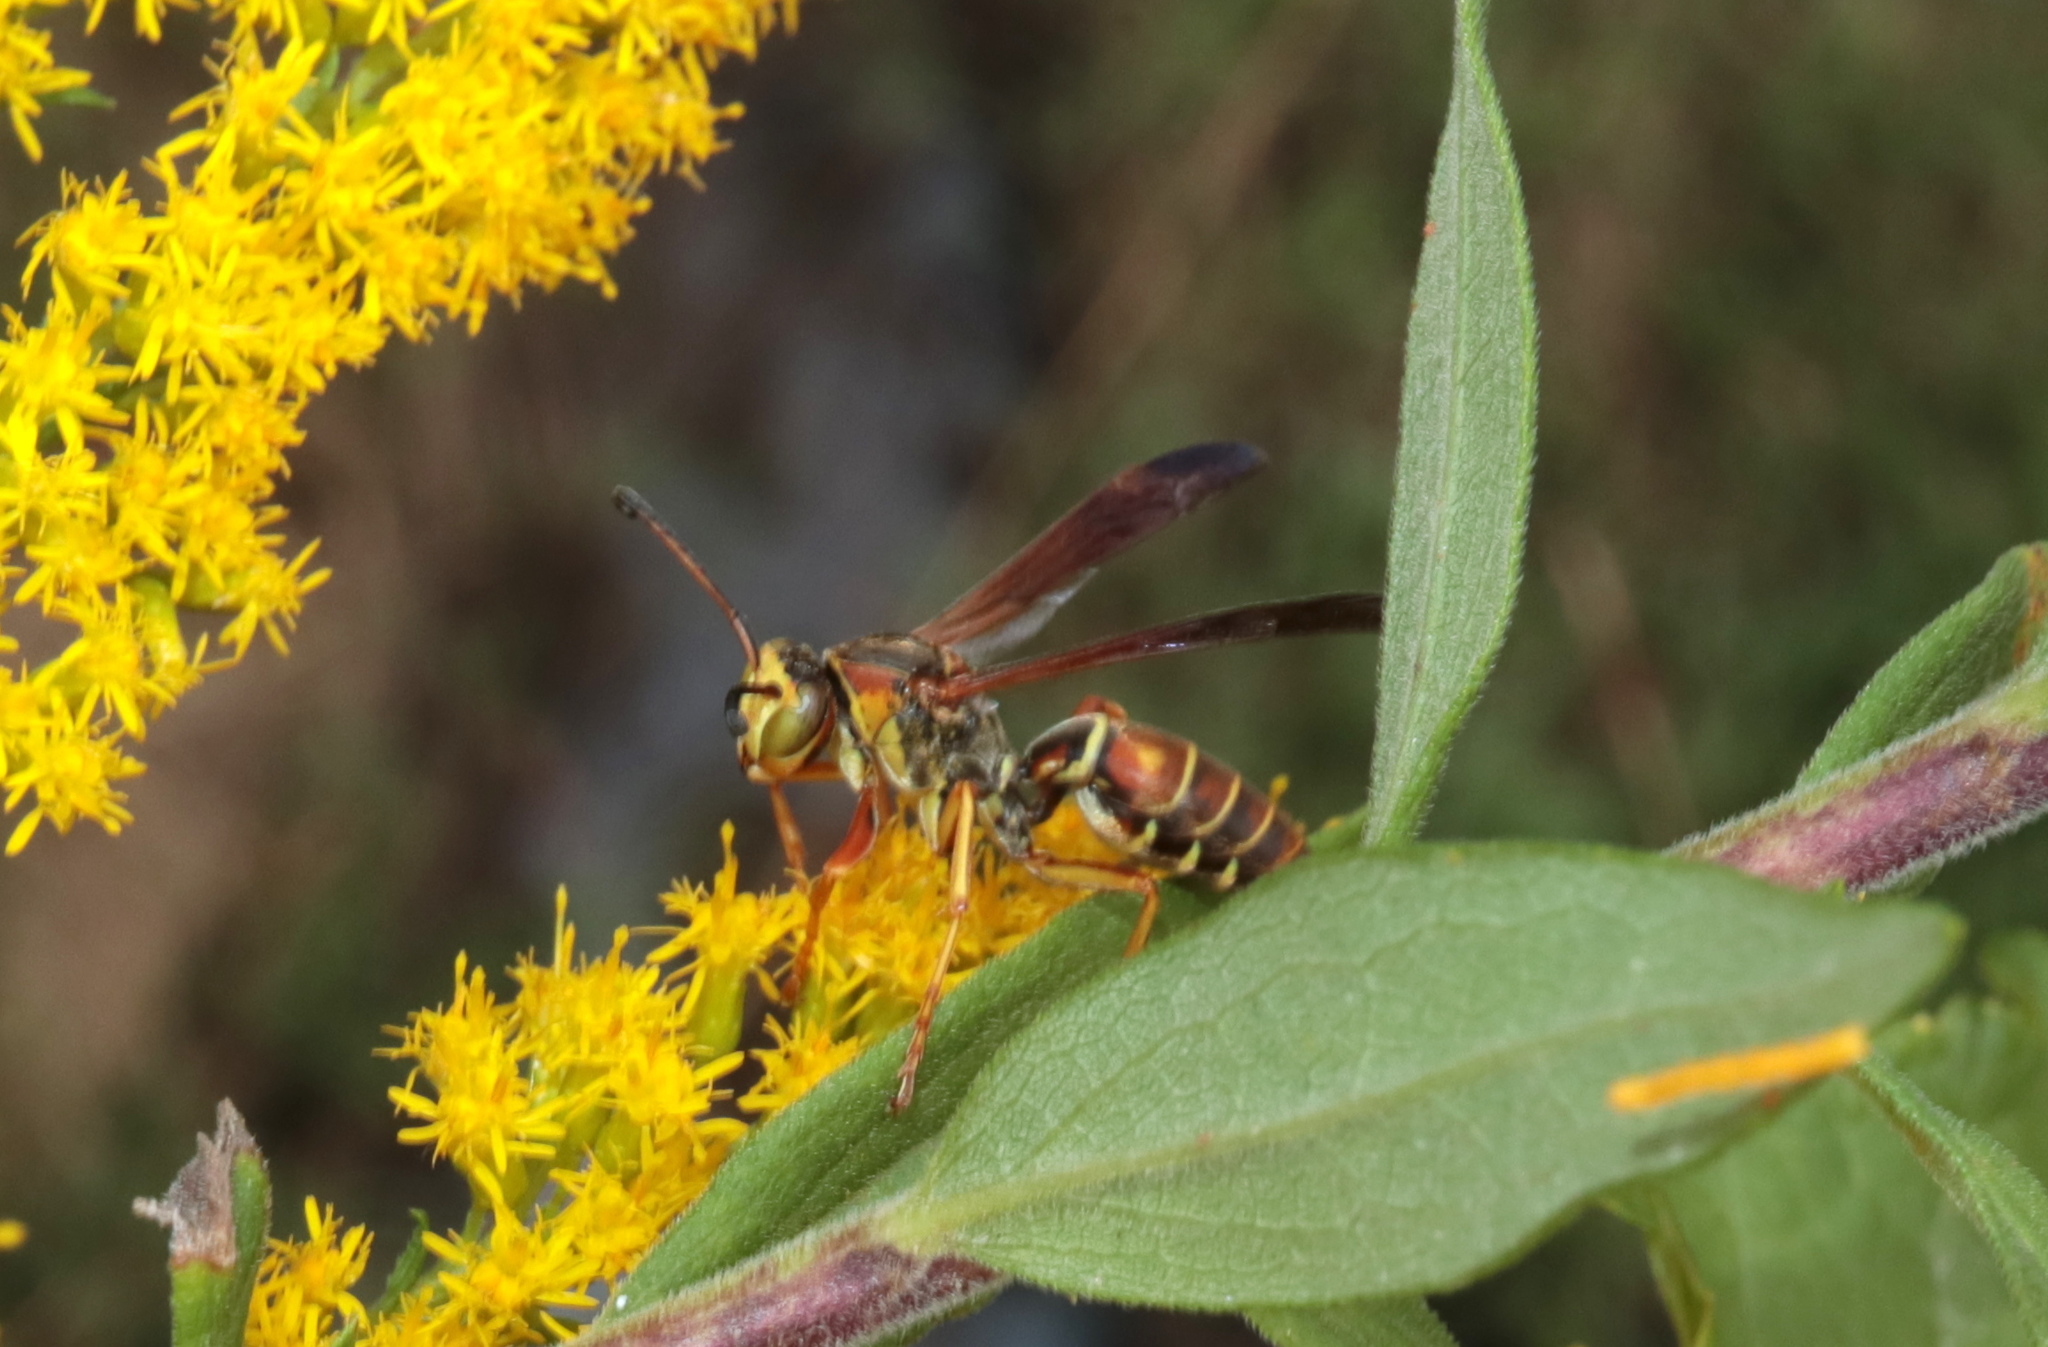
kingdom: Animalia
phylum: Arthropoda
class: Insecta
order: Hymenoptera
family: Eumenidae
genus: Polistes
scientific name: Polistes fuscatus
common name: Dark paper wasp
